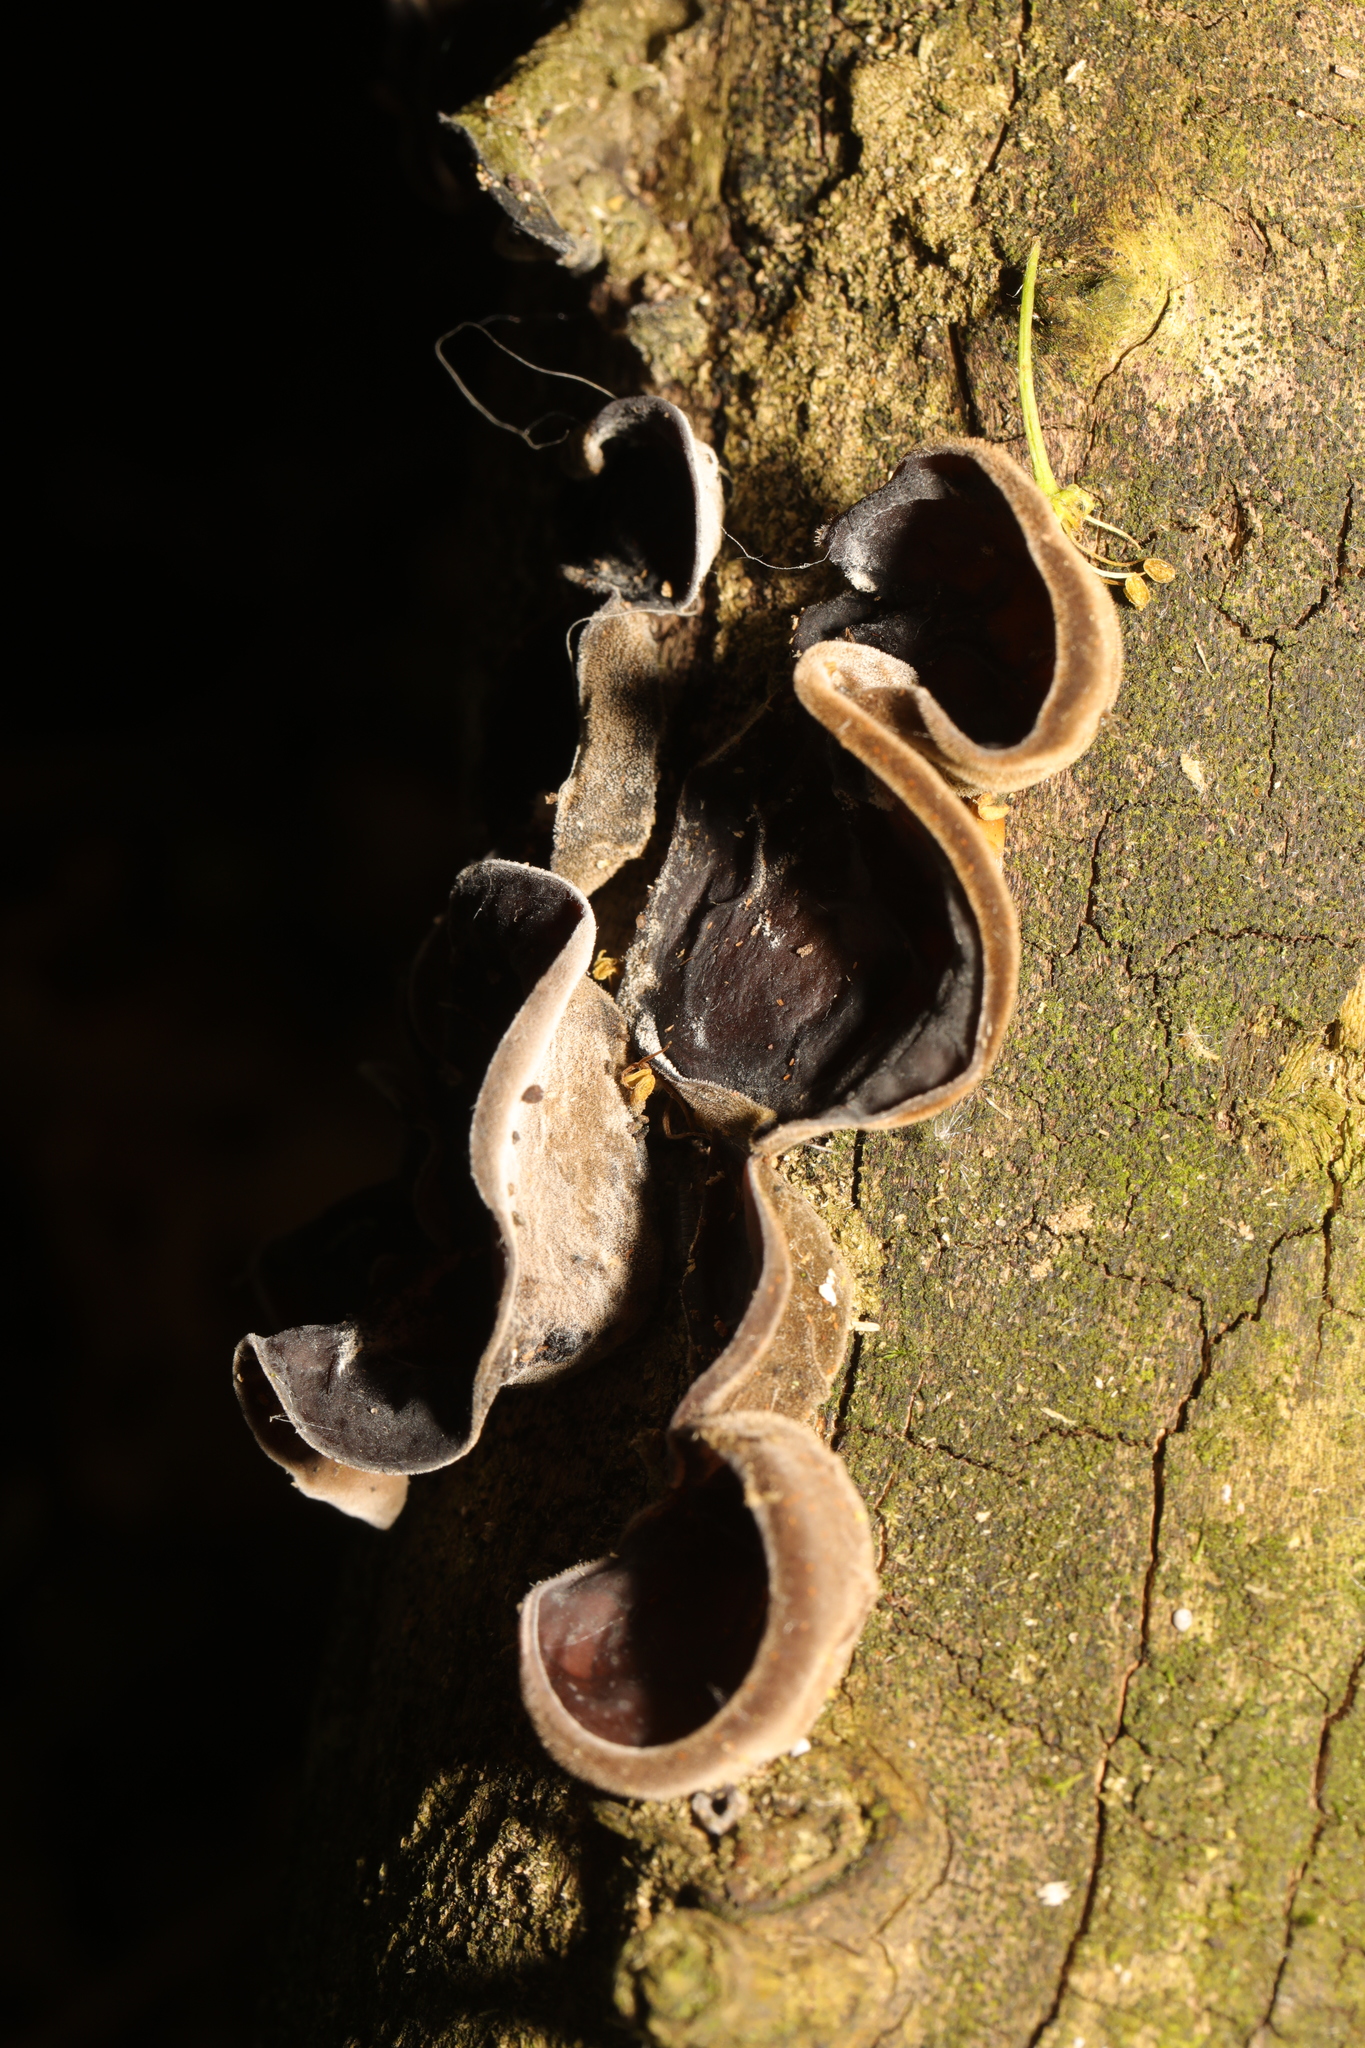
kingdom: Fungi
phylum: Basidiomycota
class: Agaricomycetes
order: Auriculariales
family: Auriculariaceae
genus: Auricularia
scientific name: Auricularia auricula-judae
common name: Jelly ear
